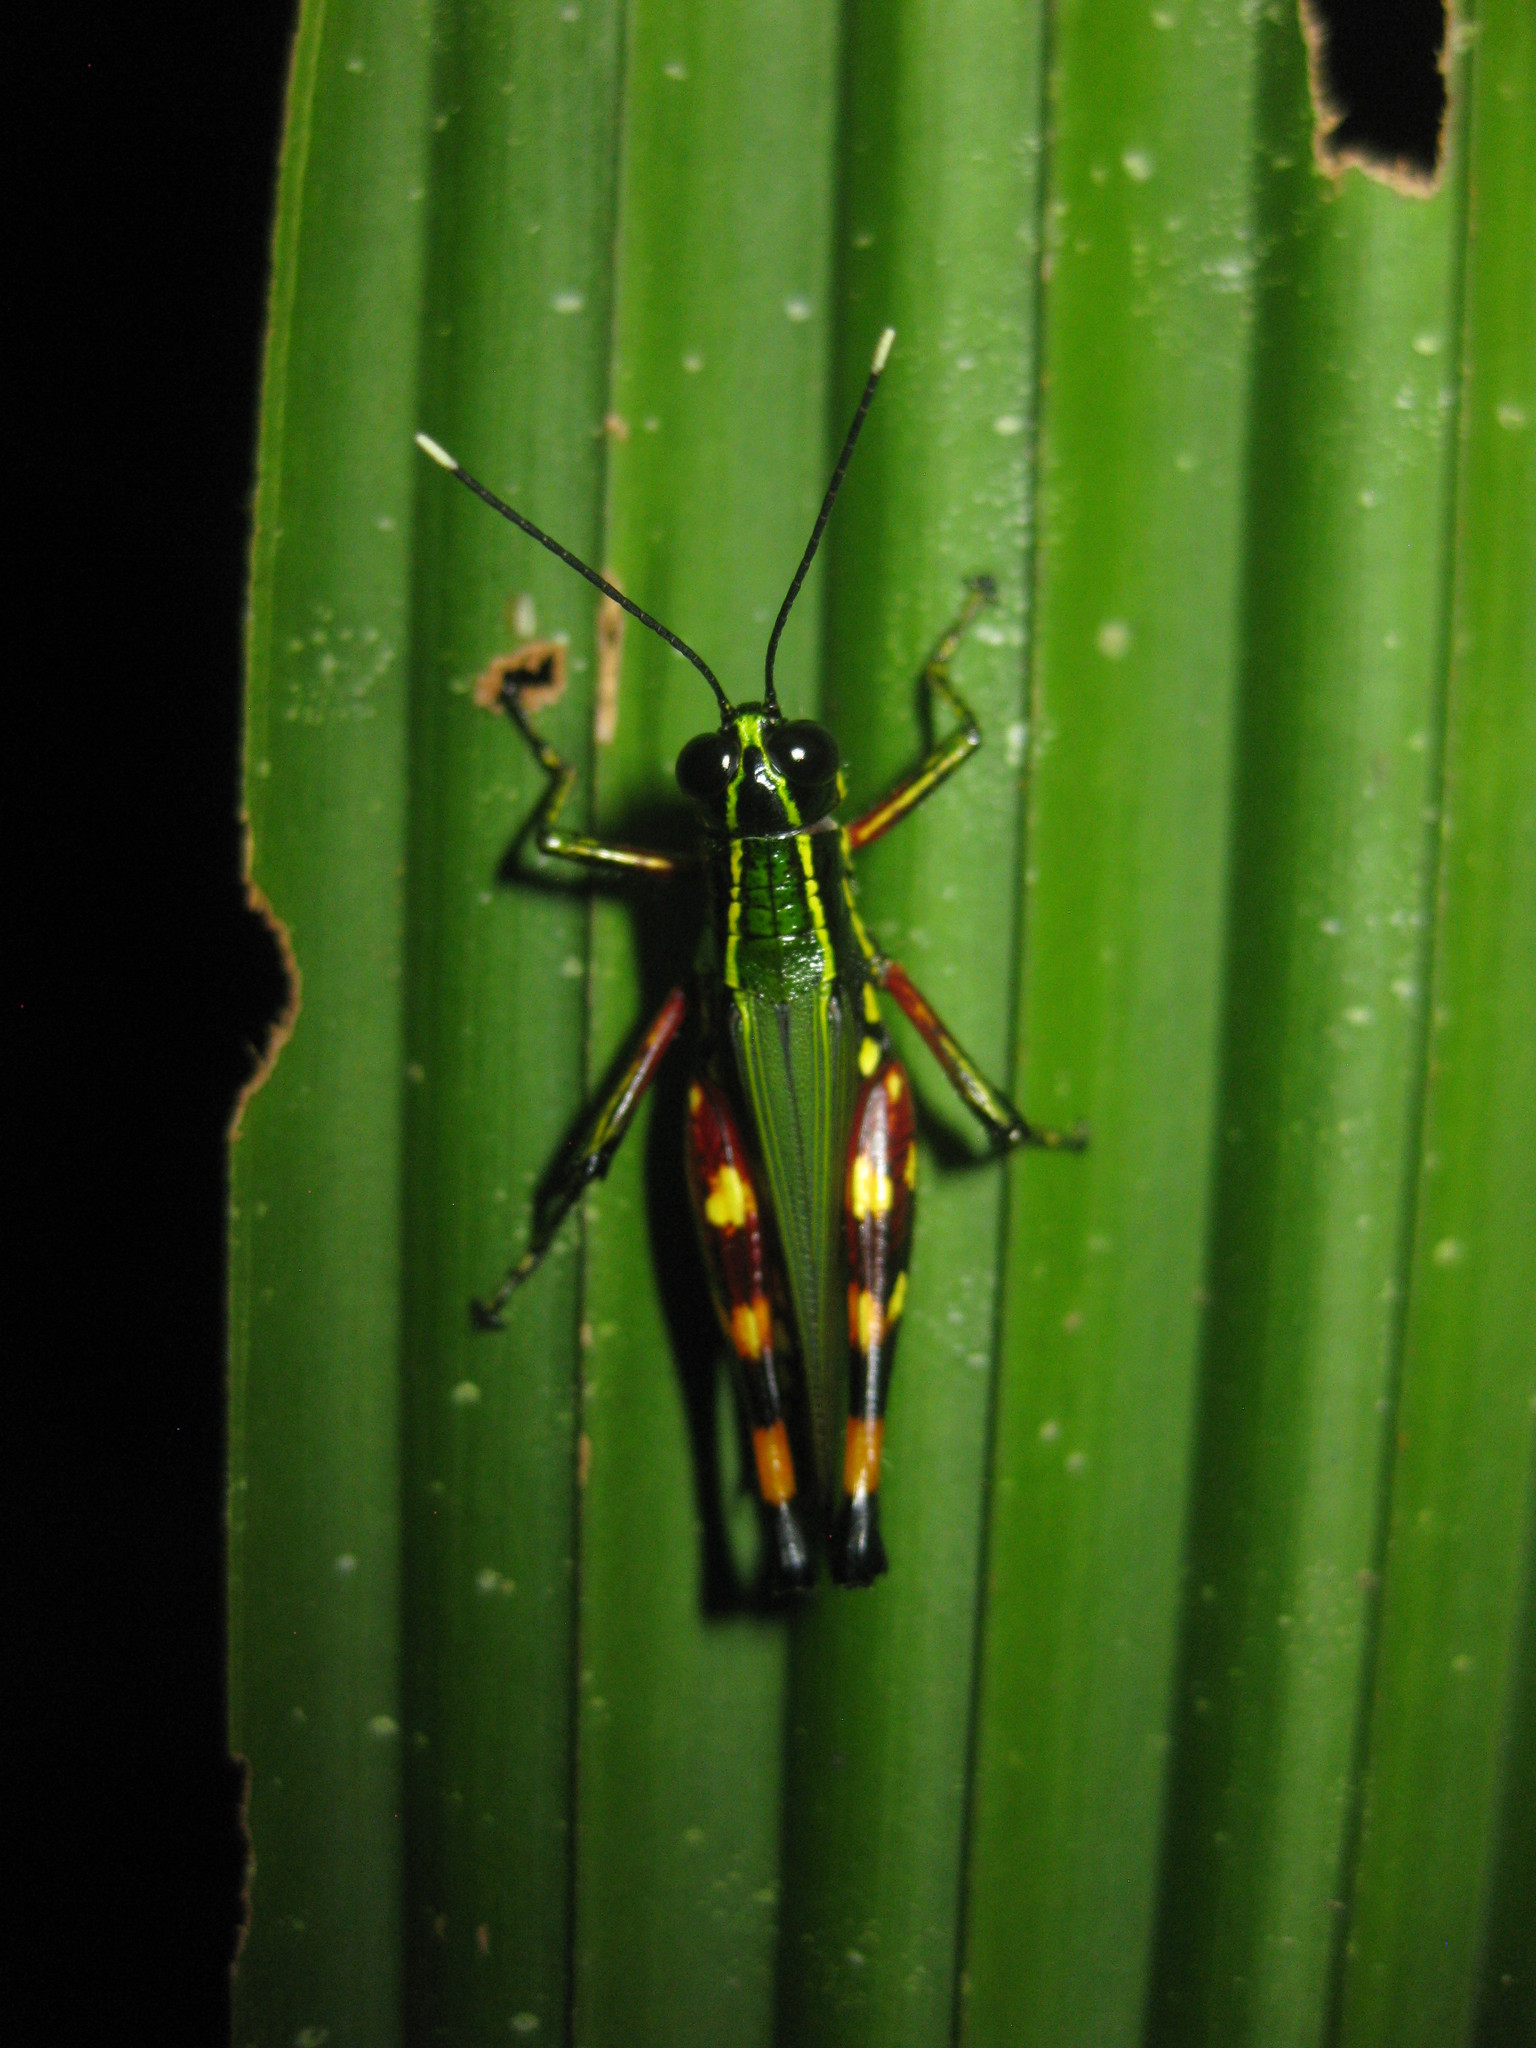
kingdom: Animalia
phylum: Arthropoda
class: Insecta
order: Orthoptera
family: Acrididae
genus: Tetrataenia
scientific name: Tetrataenia surinama
